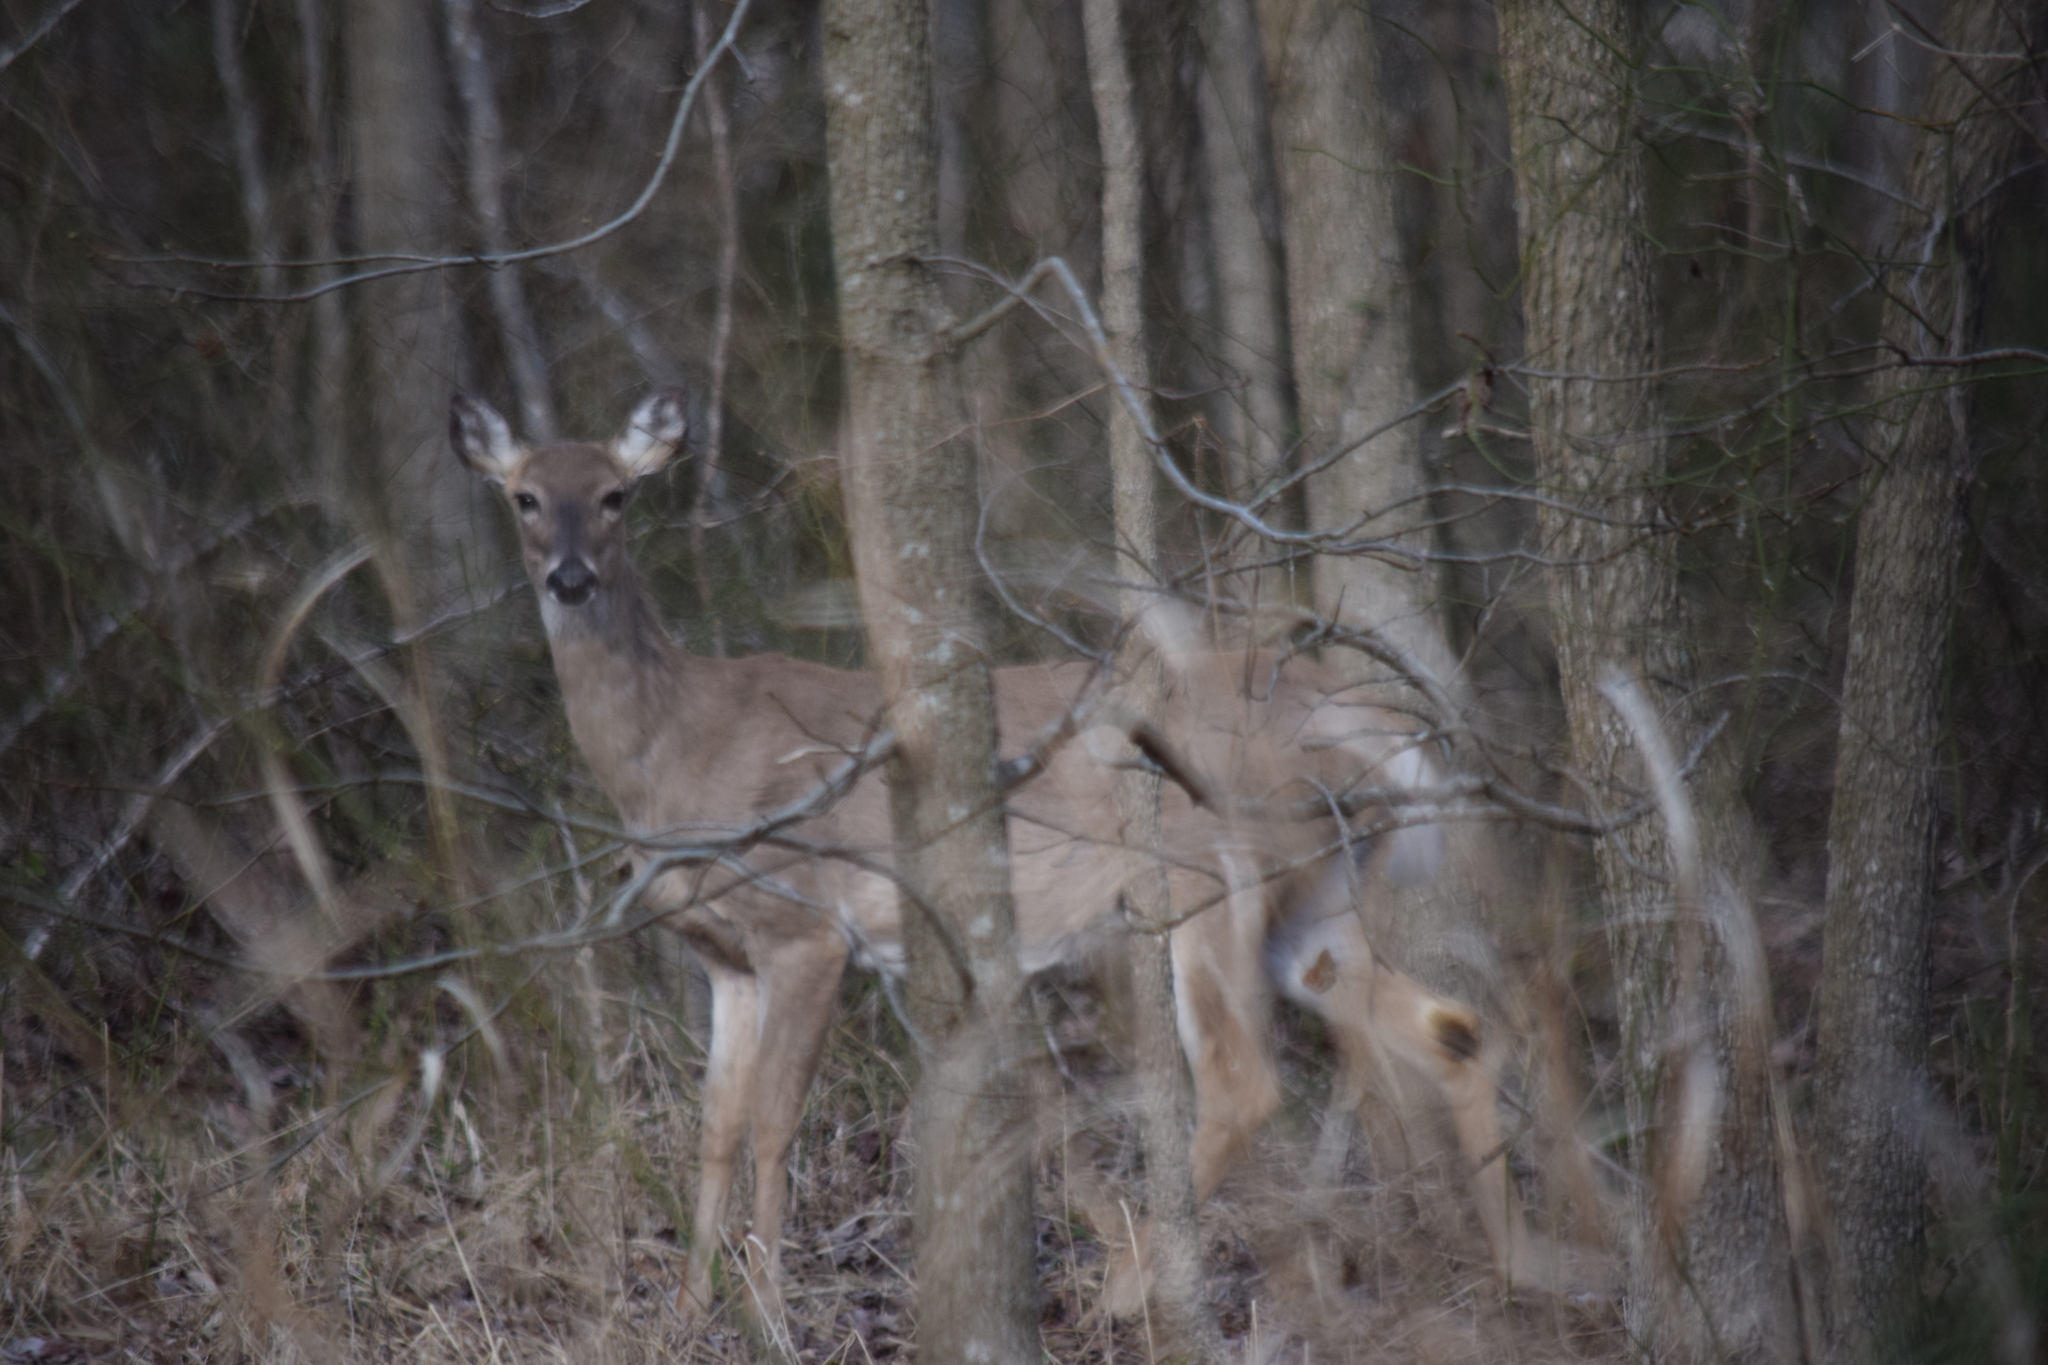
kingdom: Animalia
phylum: Chordata
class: Mammalia
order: Artiodactyla
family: Cervidae
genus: Odocoileus
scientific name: Odocoileus virginianus
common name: White-tailed deer
